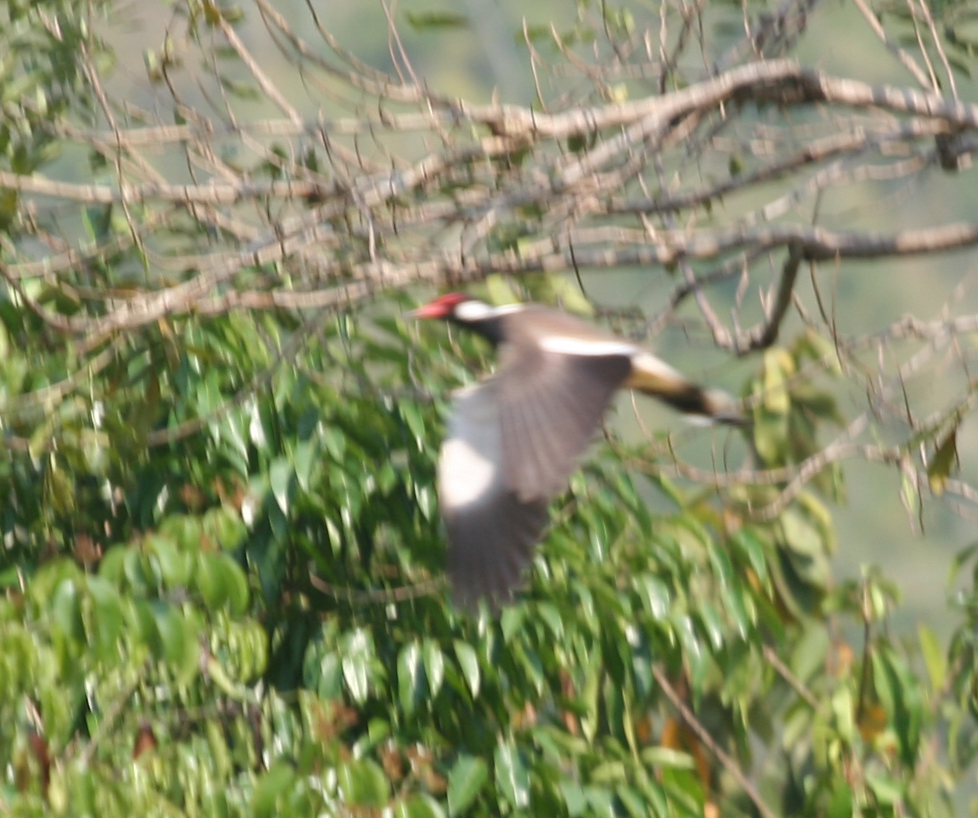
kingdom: Animalia
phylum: Chordata
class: Aves
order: Charadriiformes
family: Charadriidae
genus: Vanellus
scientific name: Vanellus indicus
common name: Red-wattled lapwing
